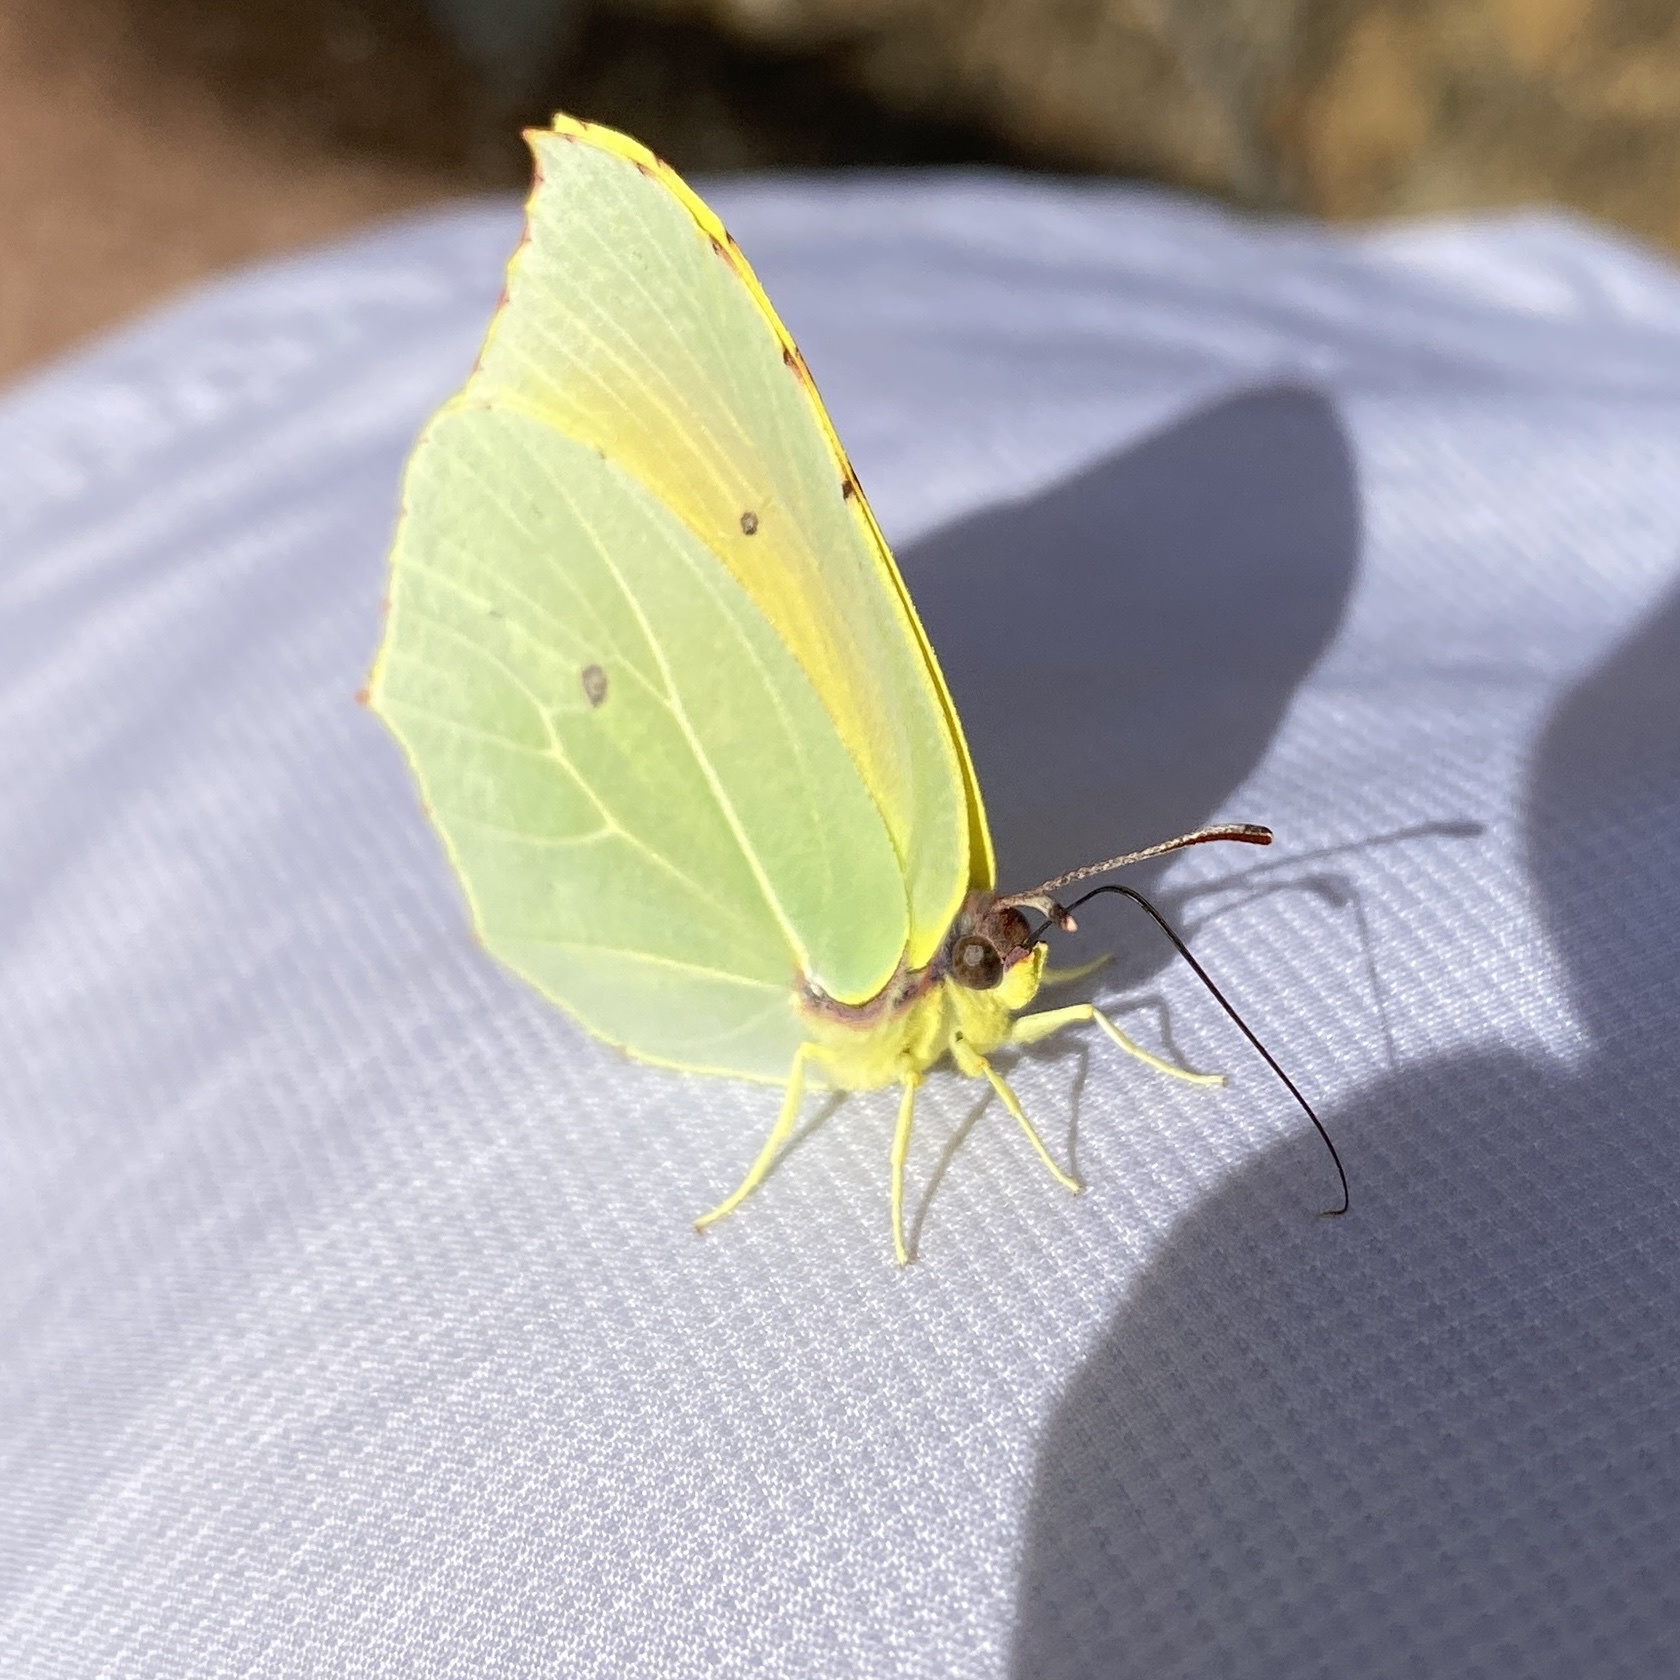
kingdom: Animalia
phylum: Arthropoda
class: Insecta
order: Lepidoptera
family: Pieridae
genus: Gonepteryx
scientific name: Gonepteryx cleopatra
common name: Cleopatra
